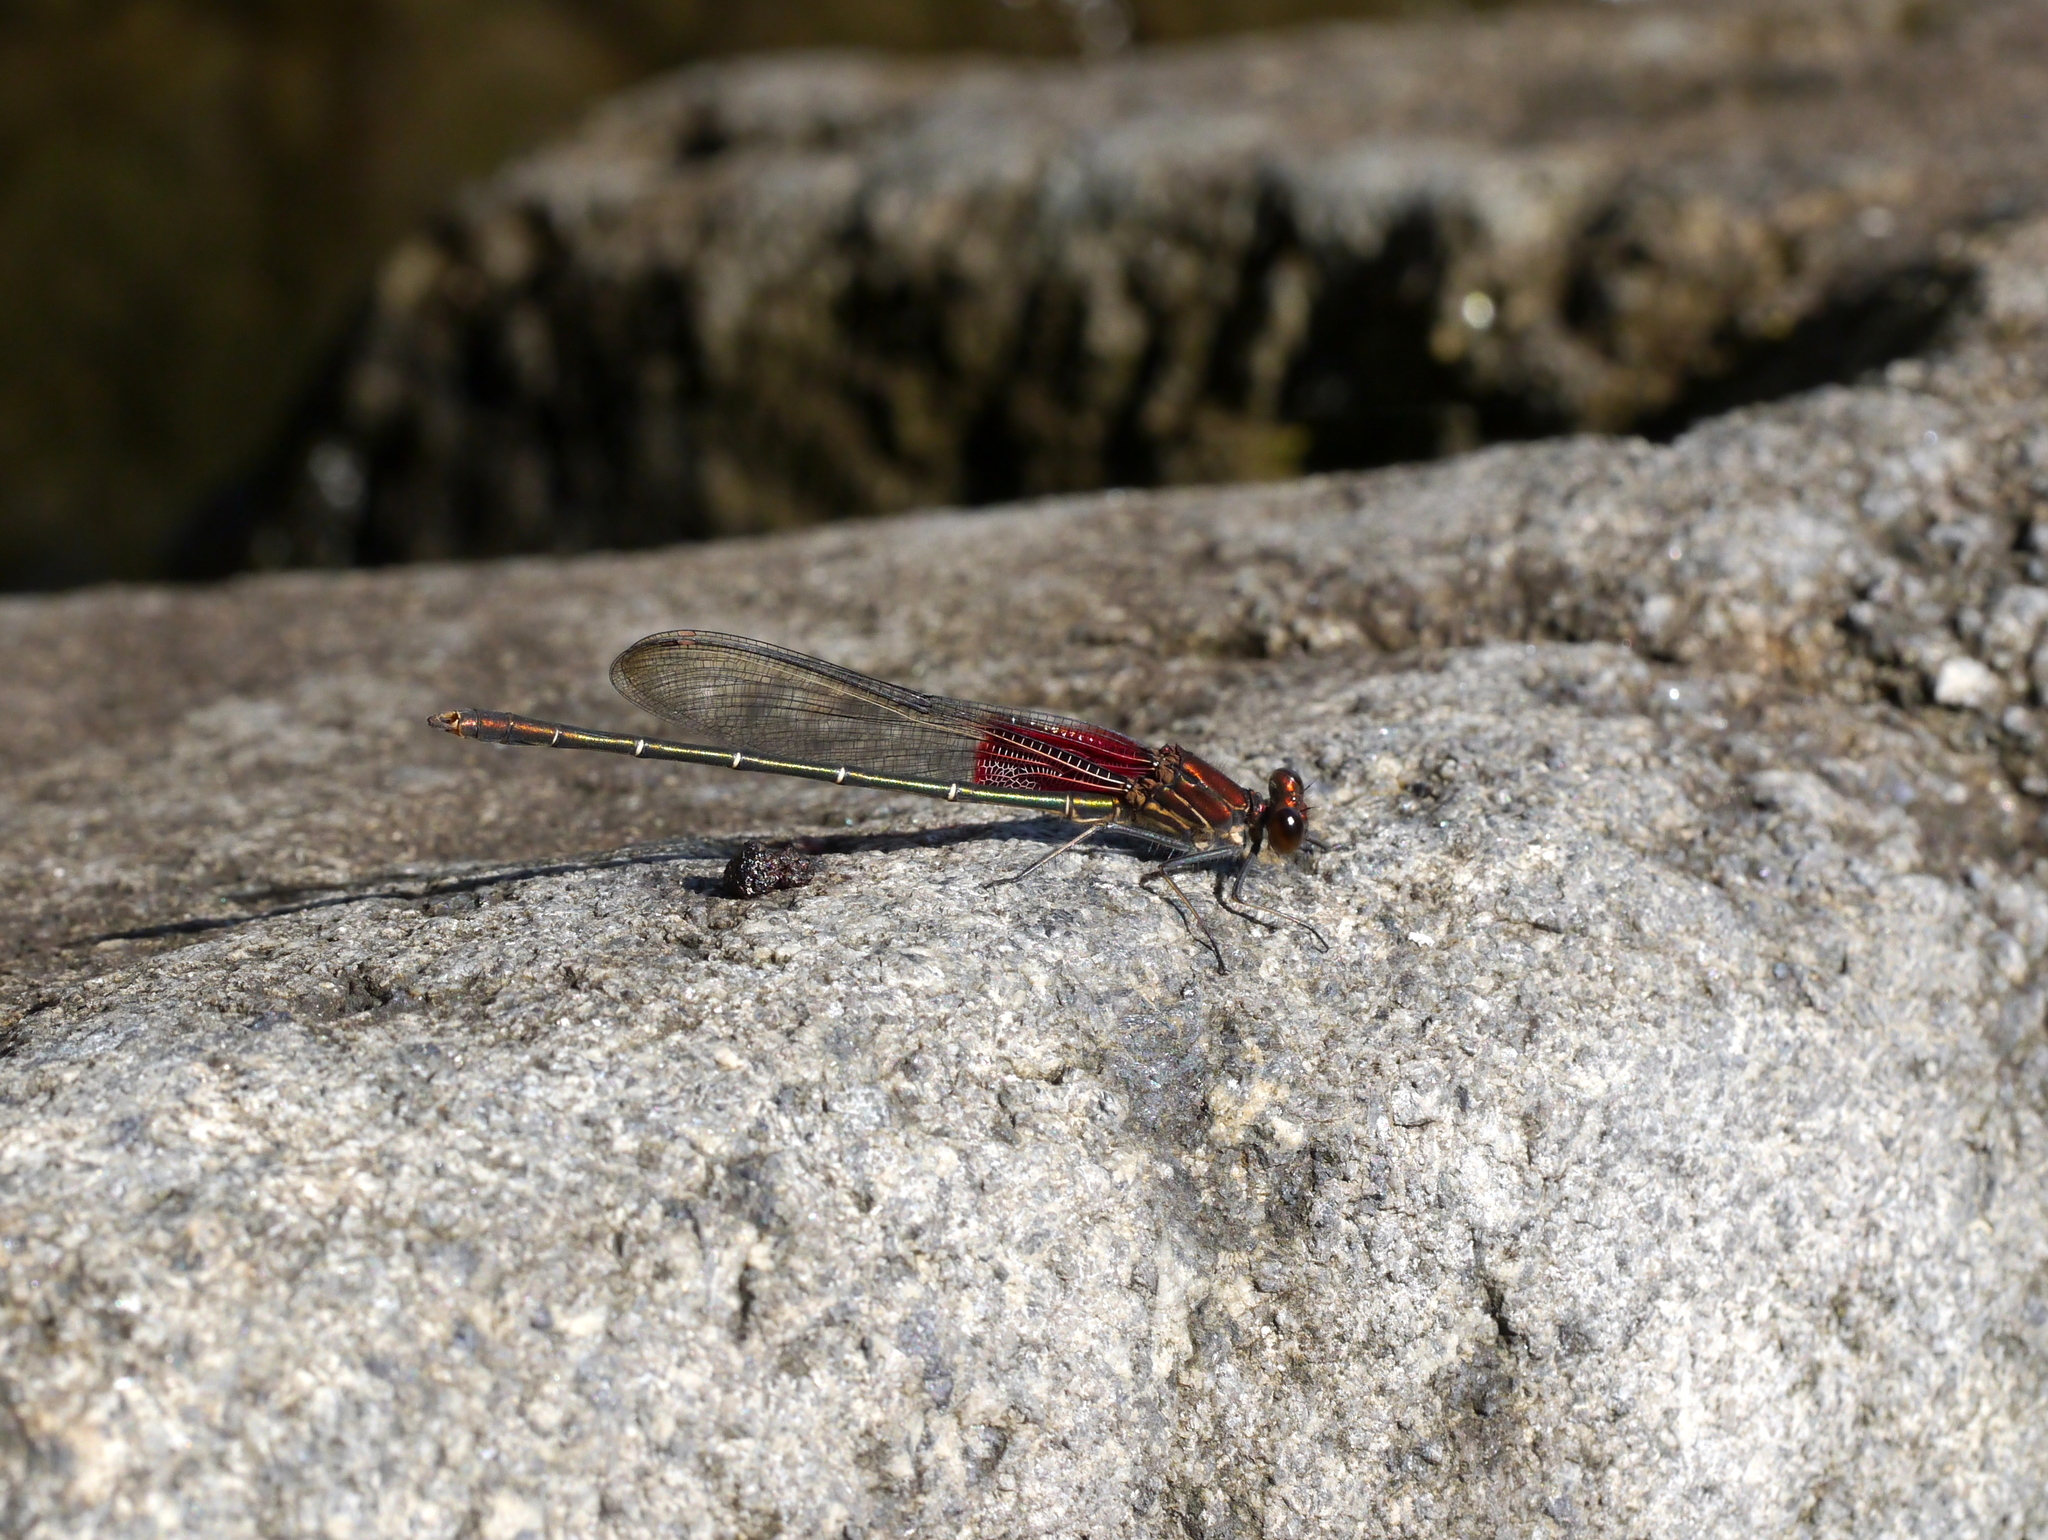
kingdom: Animalia
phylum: Arthropoda
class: Insecta
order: Odonata
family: Calopterygidae
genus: Hetaerina
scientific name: Hetaerina americana
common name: American rubyspot
